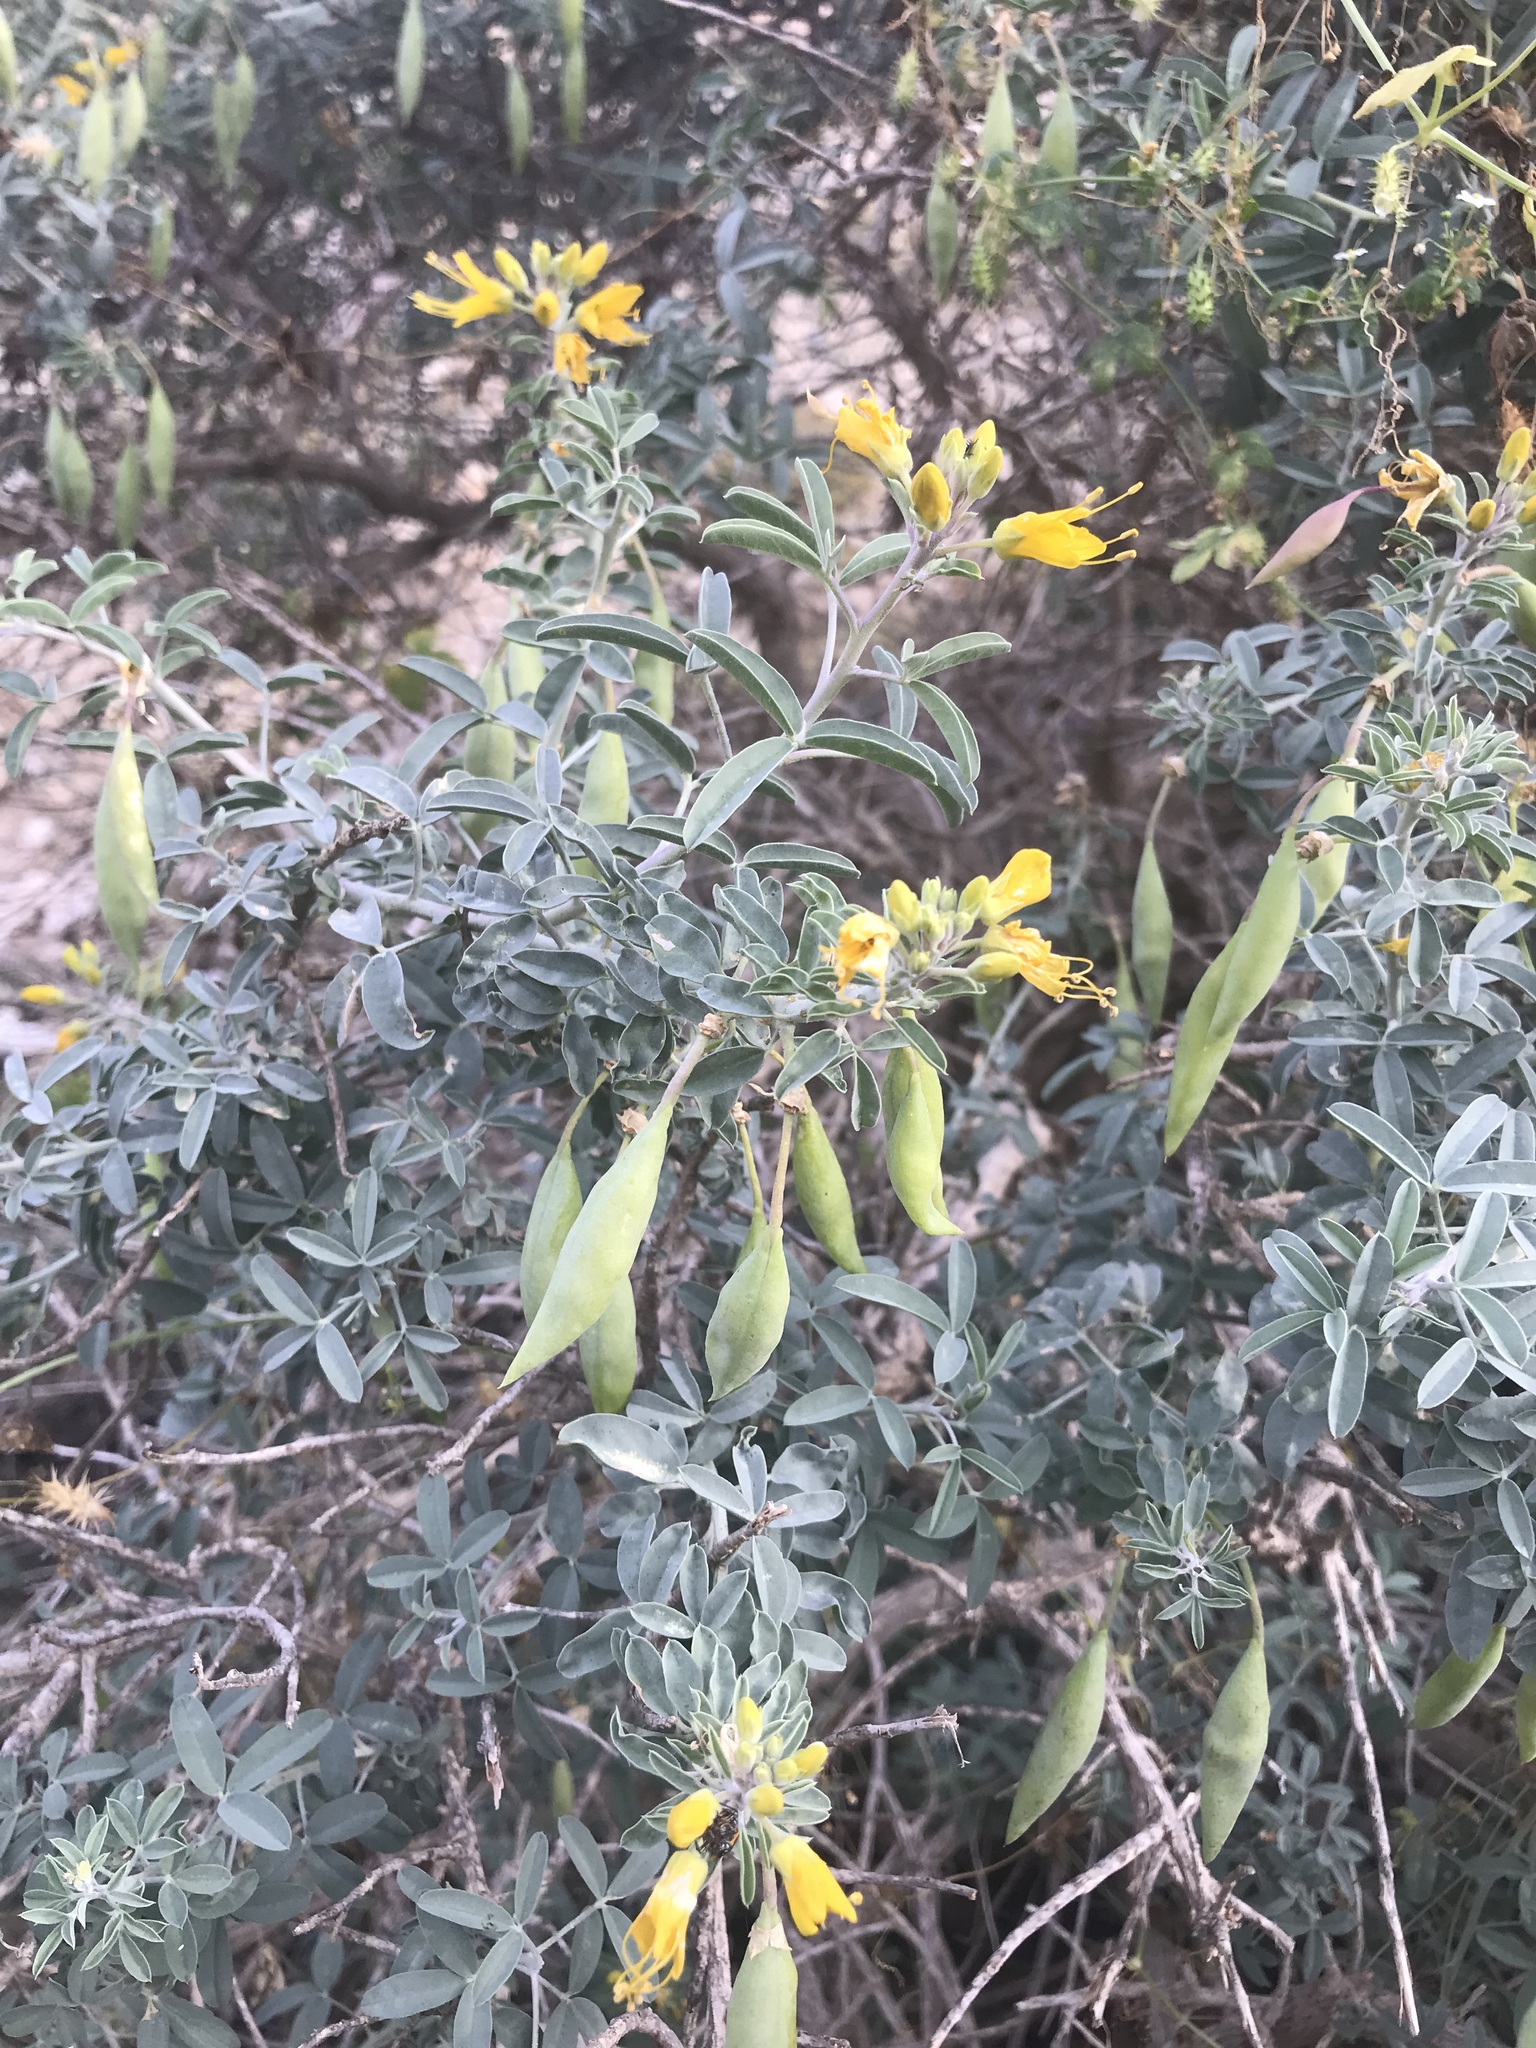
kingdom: Plantae
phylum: Tracheophyta
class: Magnoliopsida
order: Brassicales
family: Cleomaceae
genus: Cleomella
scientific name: Cleomella arborea
